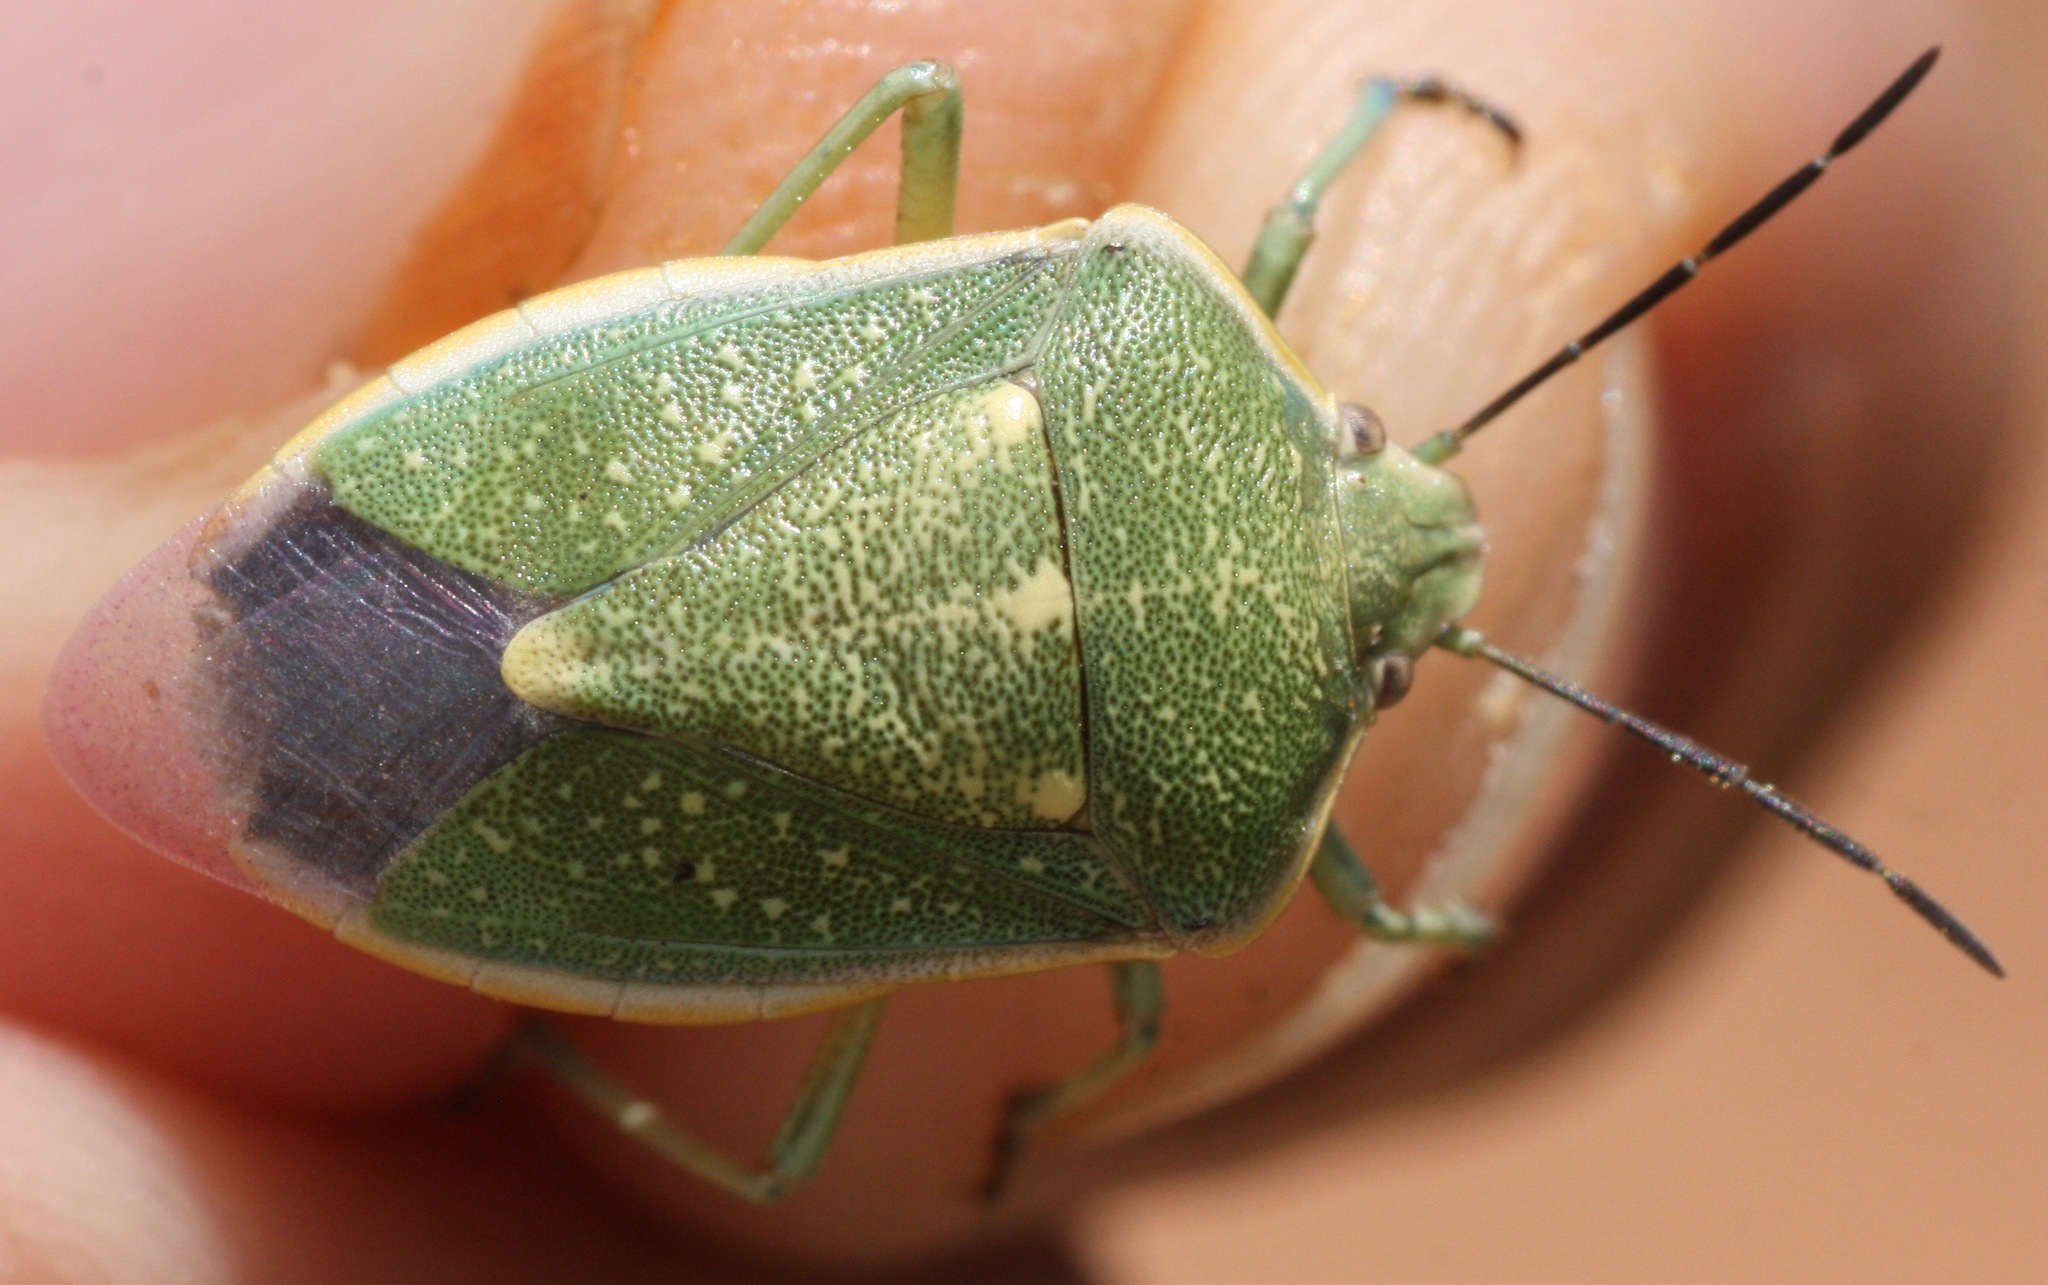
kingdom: Animalia
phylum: Arthropoda
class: Insecta
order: Hemiptera
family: Pentatomidae
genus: Chlorochroa
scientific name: Chlorochroa sayi
